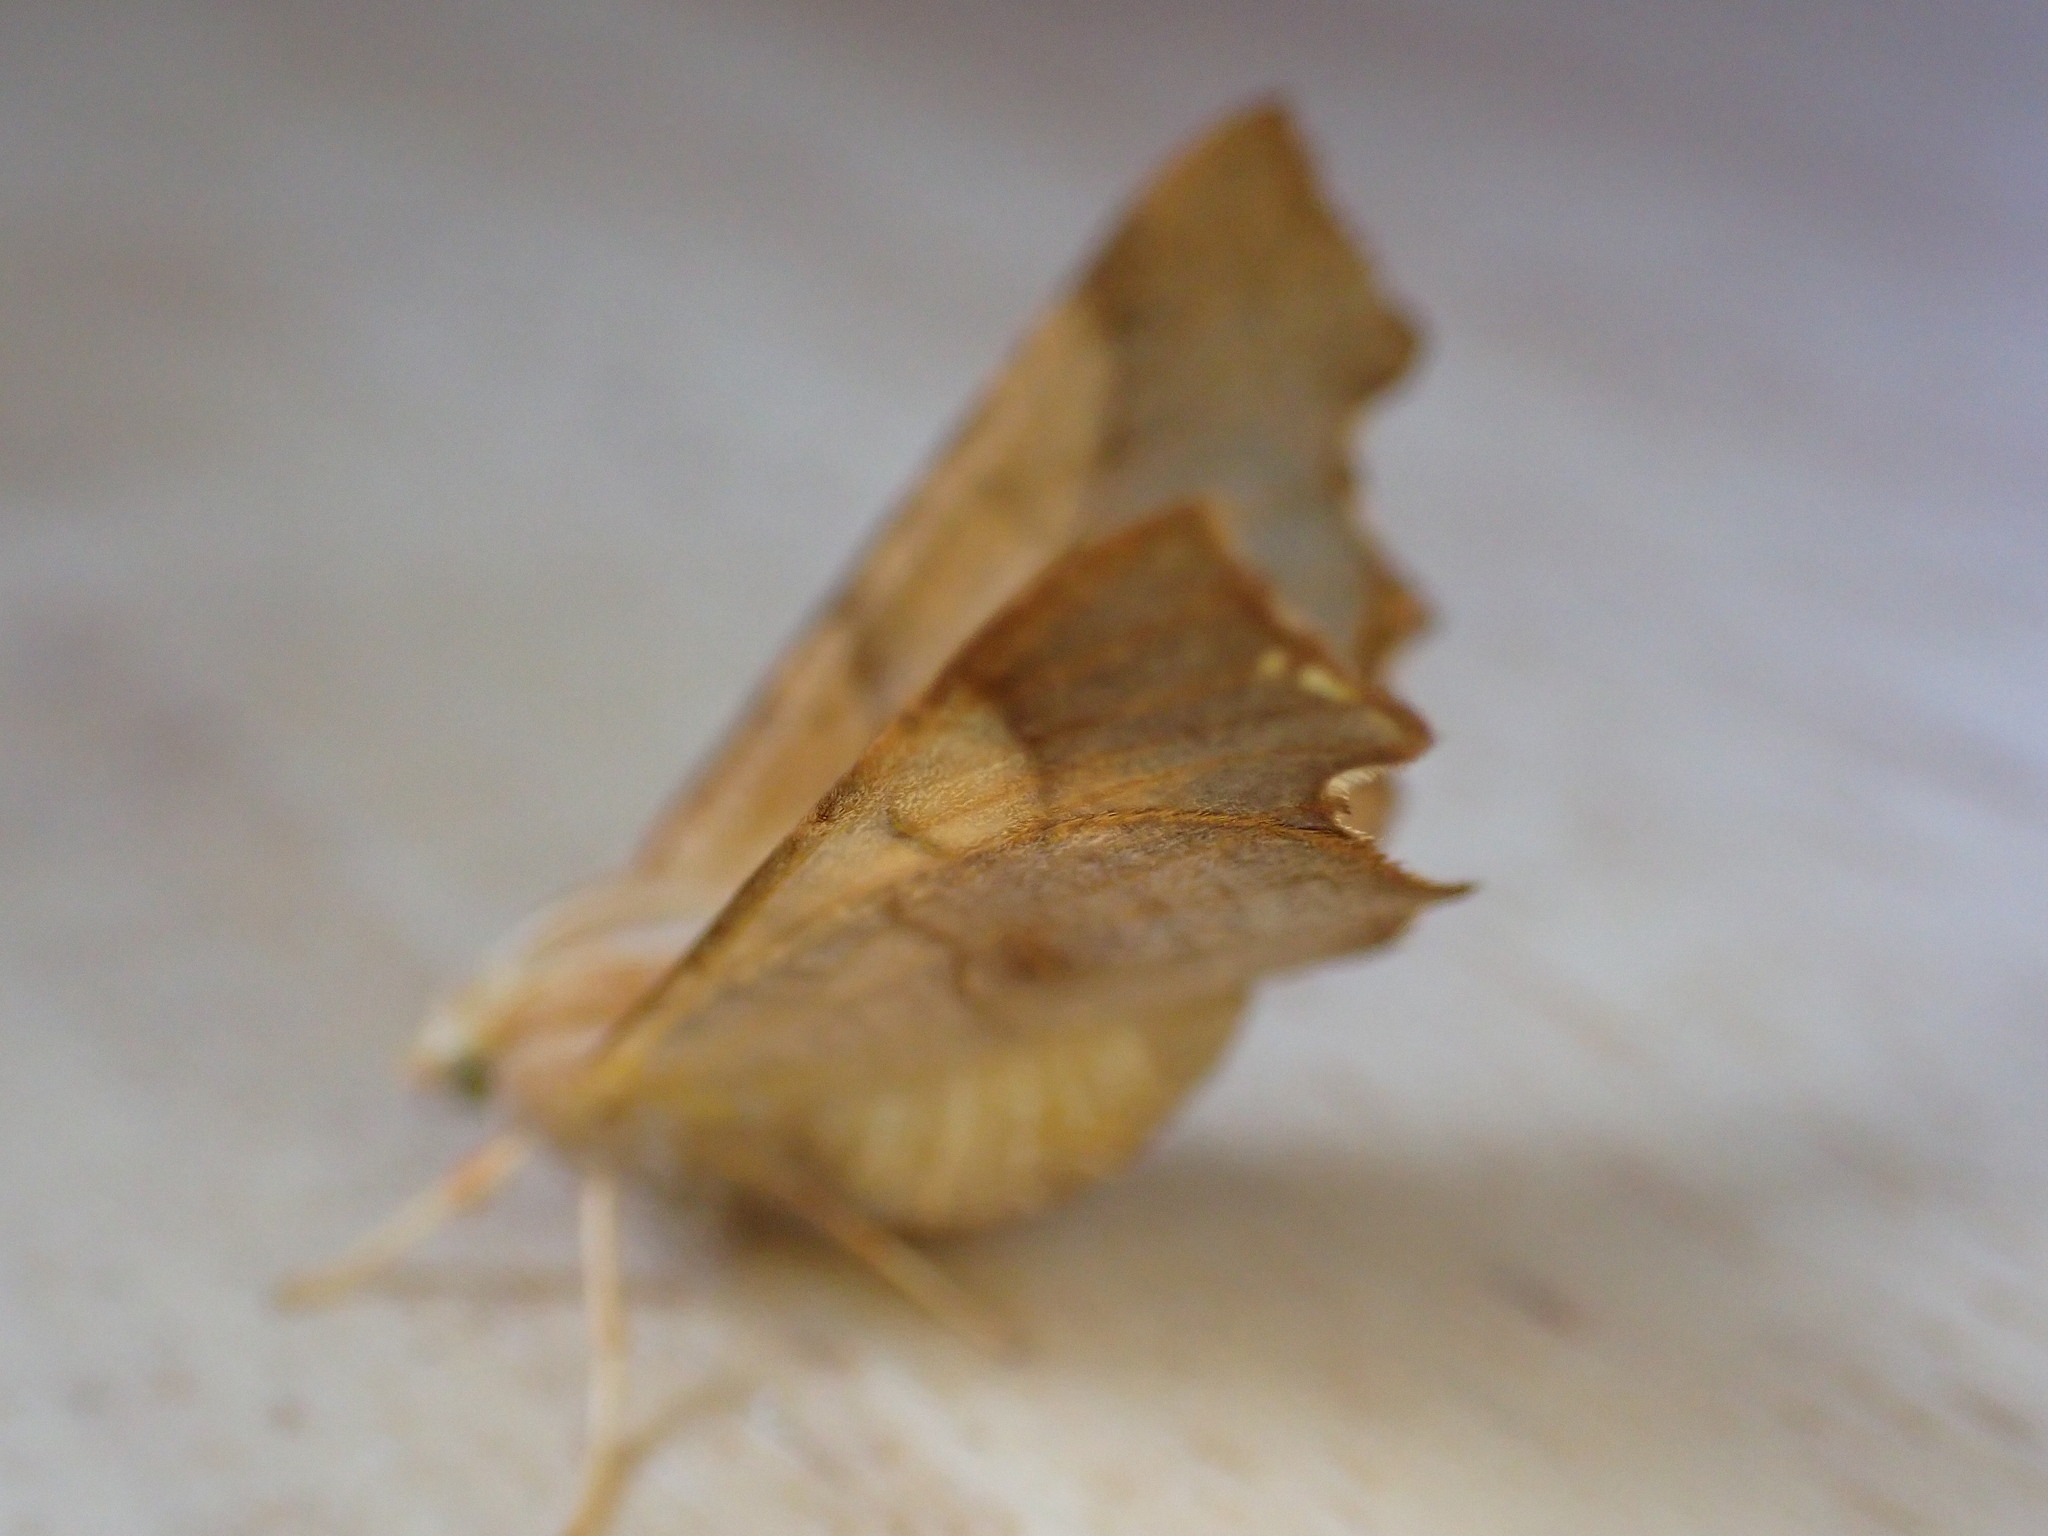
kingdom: Animalia
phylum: Arthropoda
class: Insecta
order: Lepidoptera
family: Geometridae
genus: Ennomos
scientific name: Ennomos fuscantaria
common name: Dusky thorn
